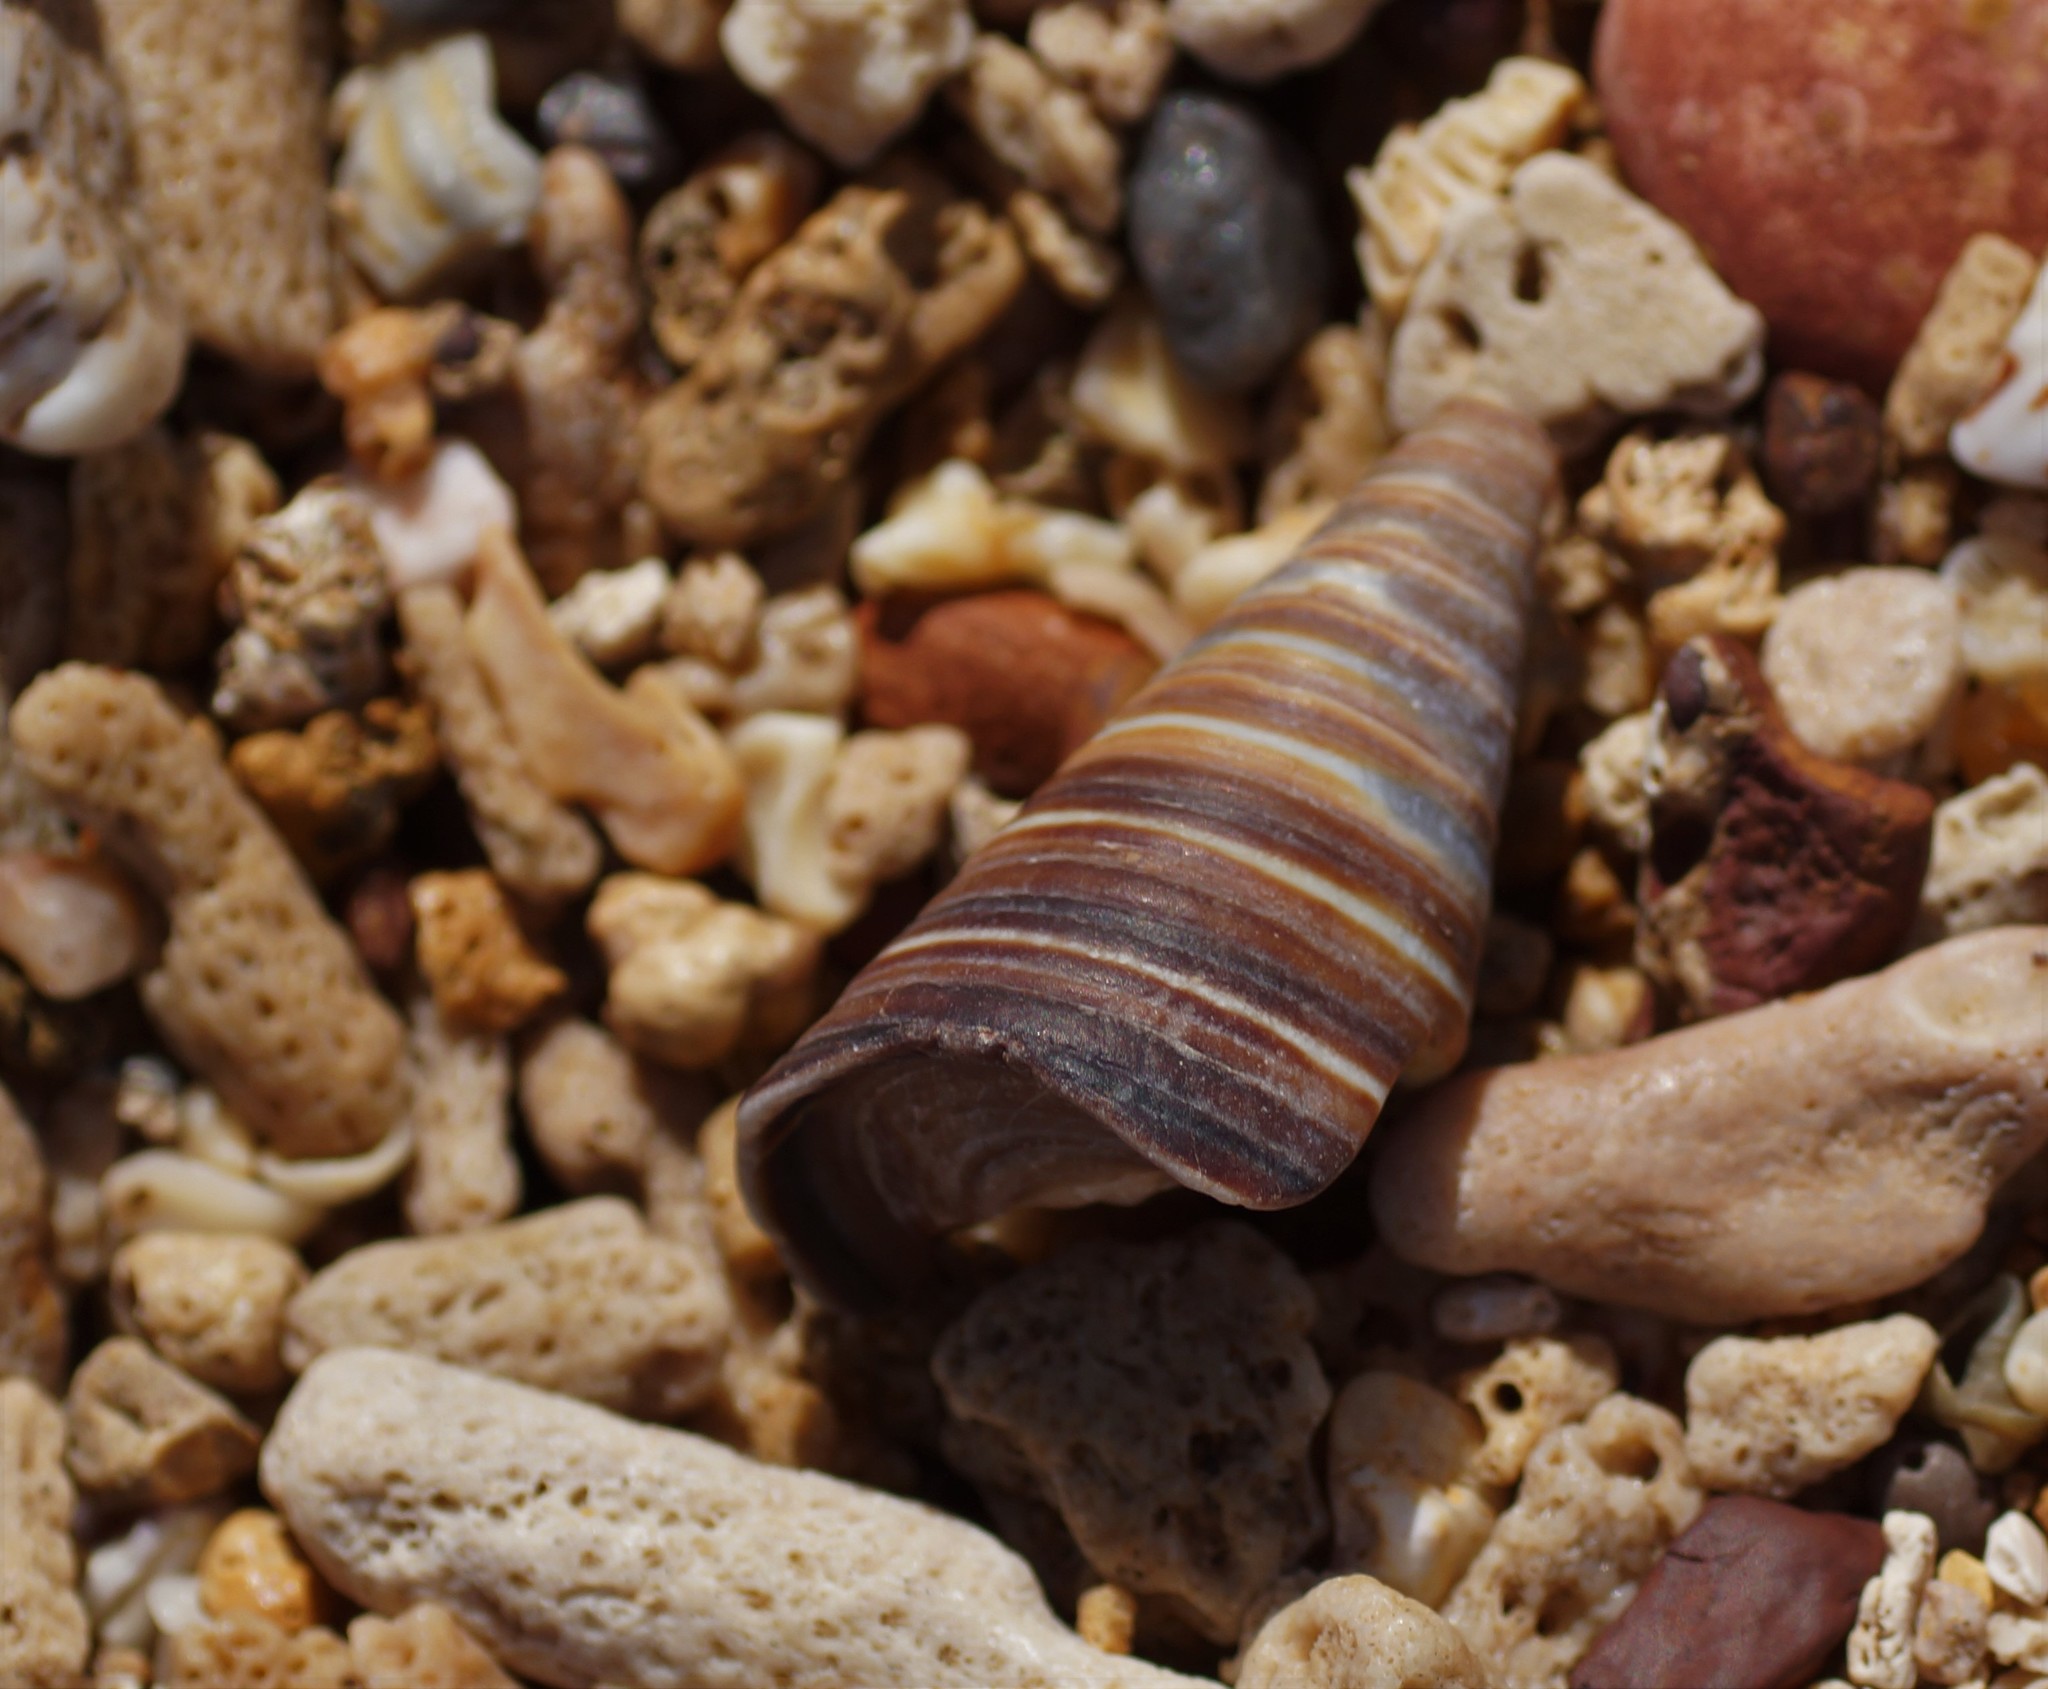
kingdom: Animalia
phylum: Mollusca
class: Gastropoda
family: Potamididae
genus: Telescopium
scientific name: Telescopium telescopium
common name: Telescope creeper
